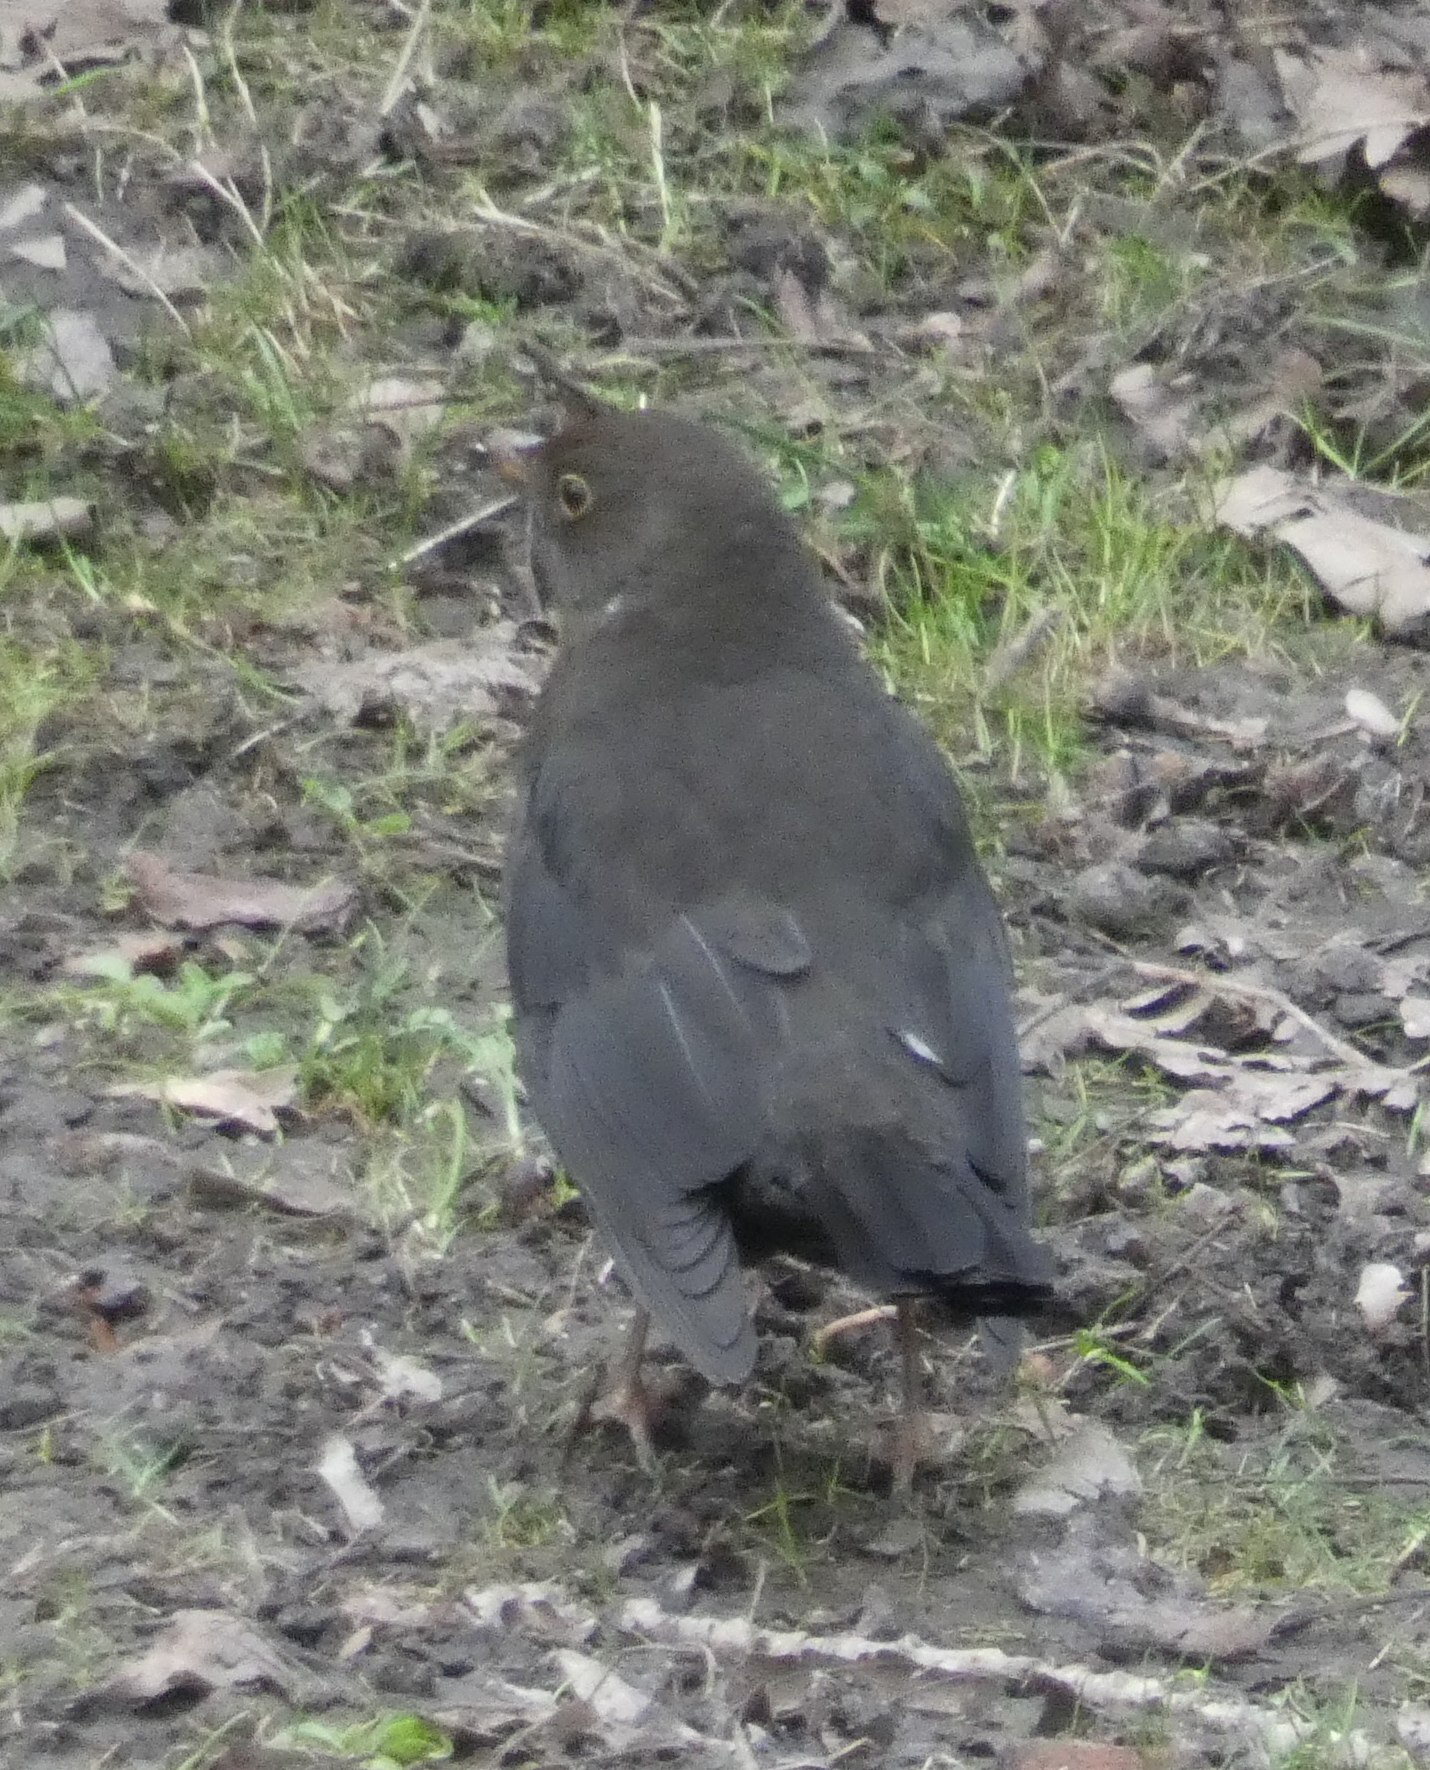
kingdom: Animalia
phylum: Chordata
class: Aves
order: Passeriformes
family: Turdidae
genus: Turdus
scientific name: Turdus merula
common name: Common blackbird
